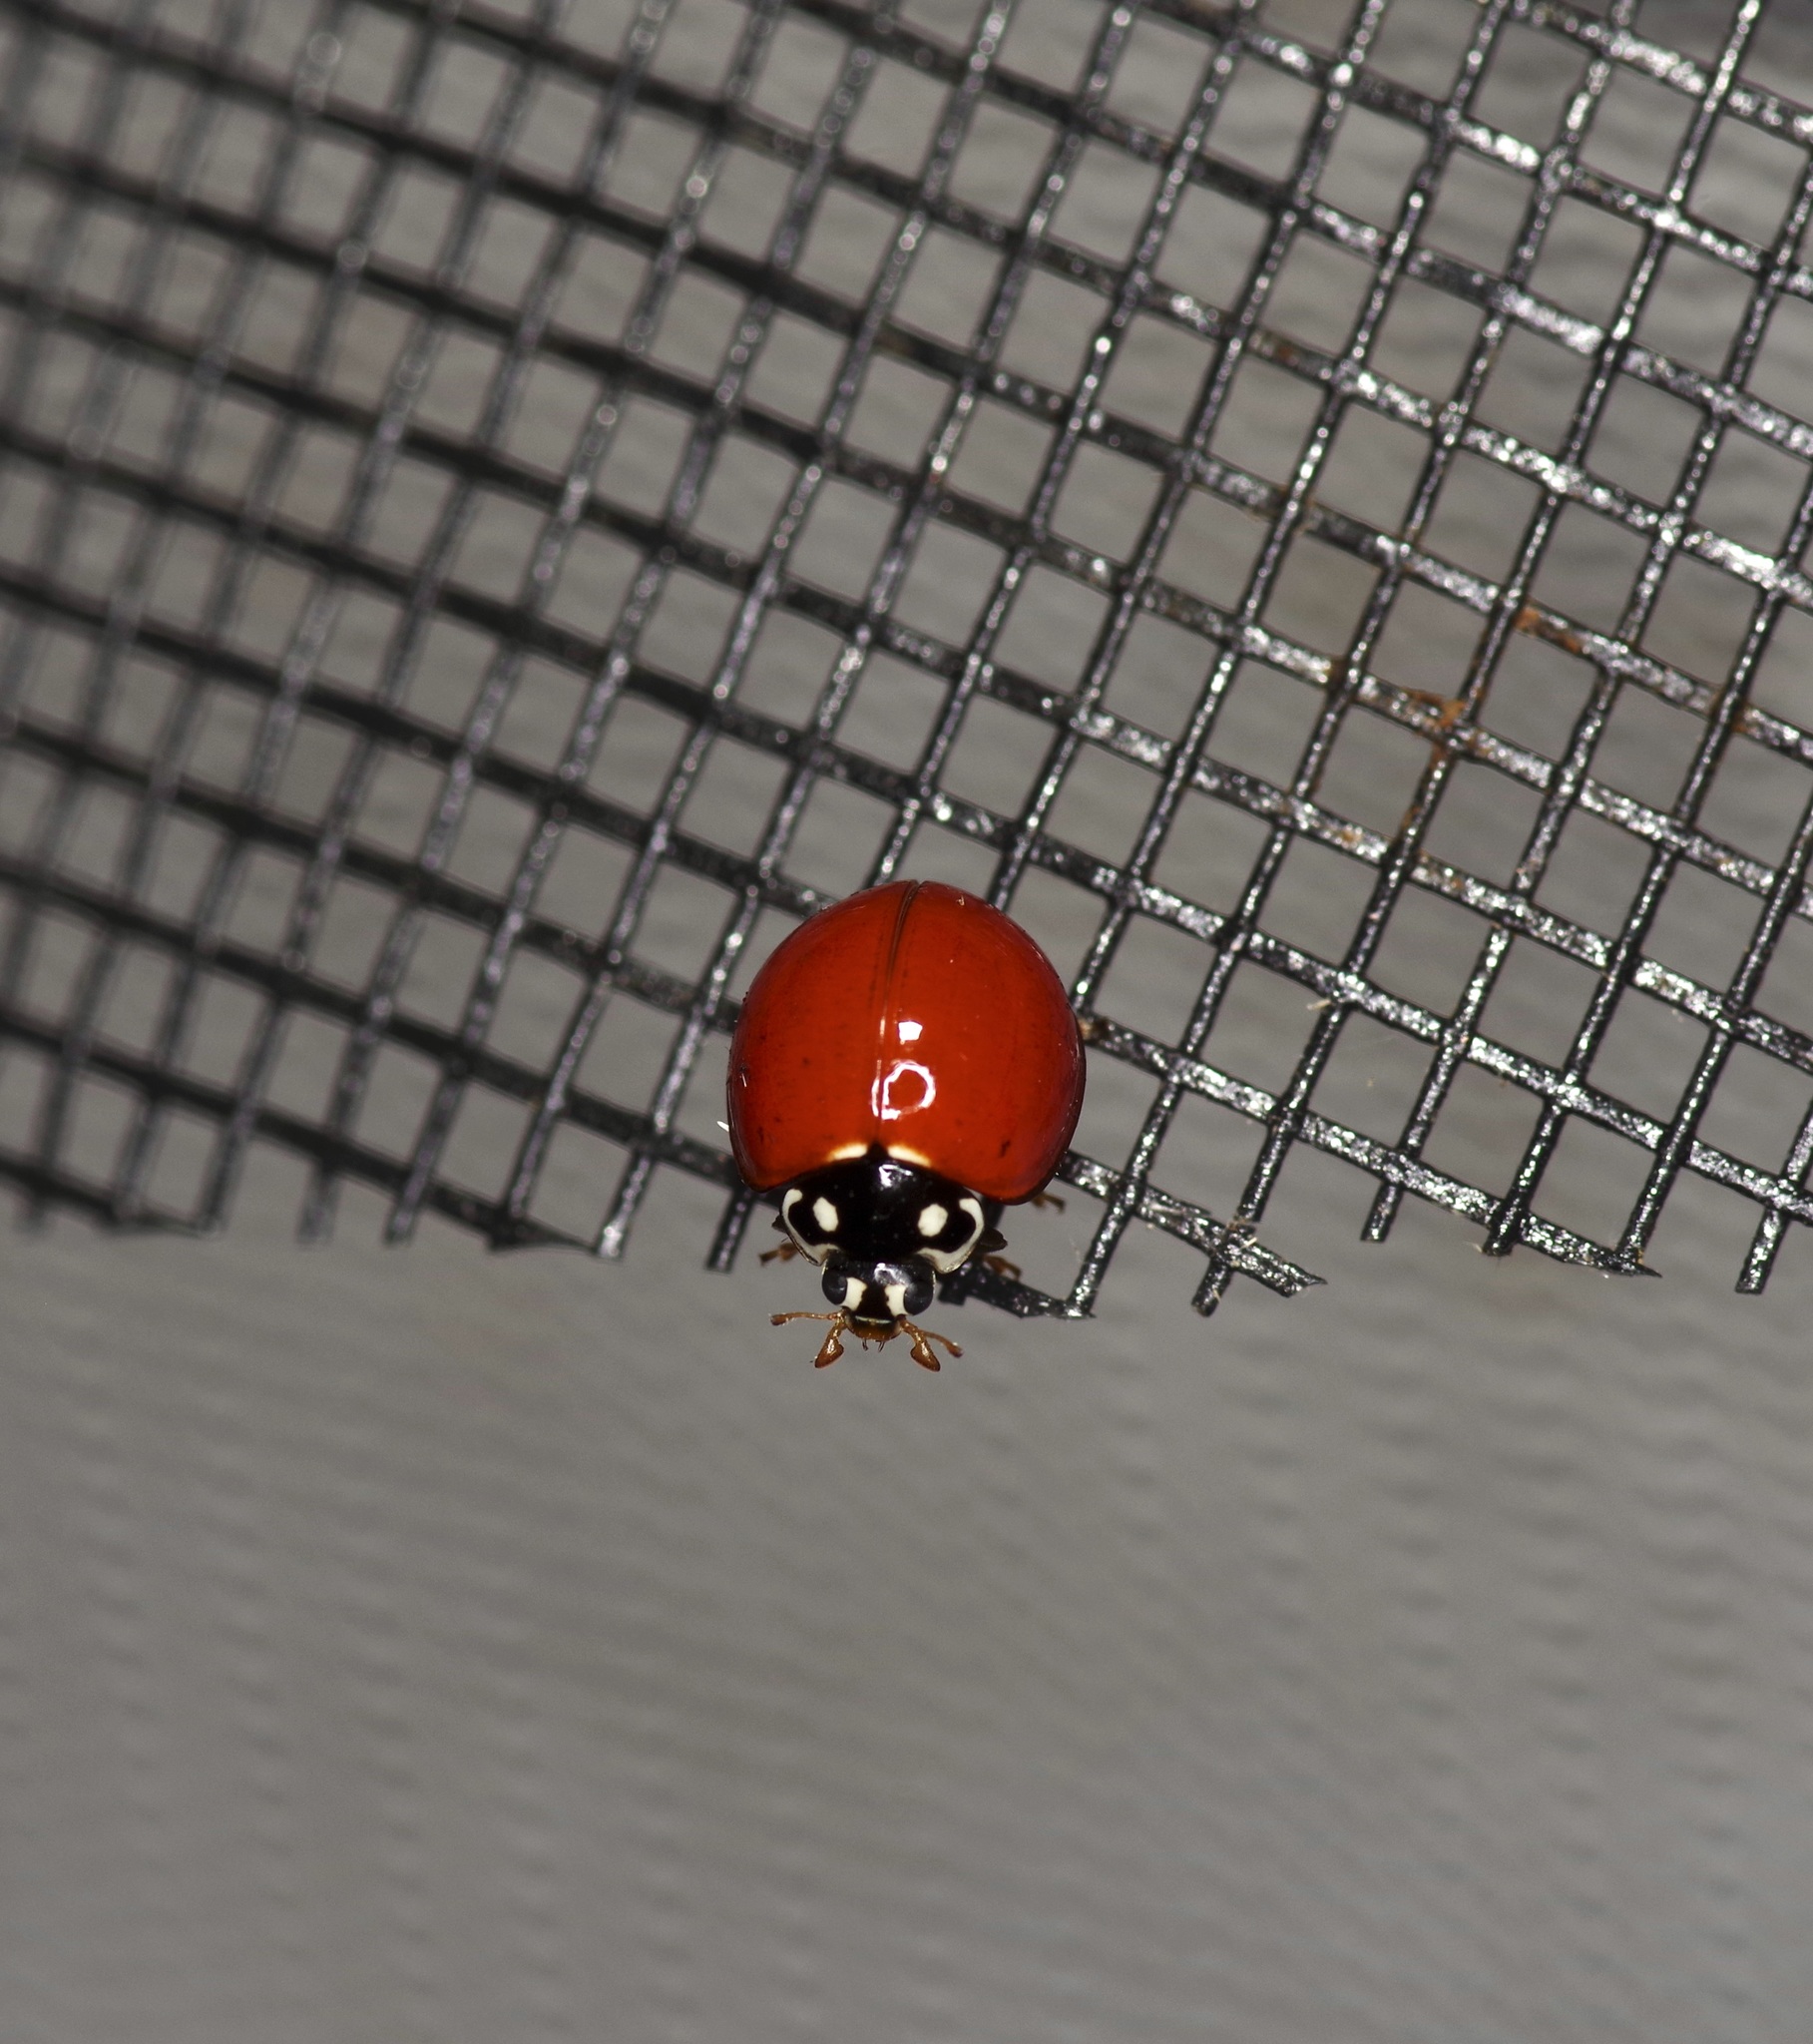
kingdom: Animalia
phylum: Arthropoda
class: Insecta
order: Coleoptera
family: Coccinellidae
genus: Cycloneda
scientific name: Cycloneda sanguinea
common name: Ladybird beetle
